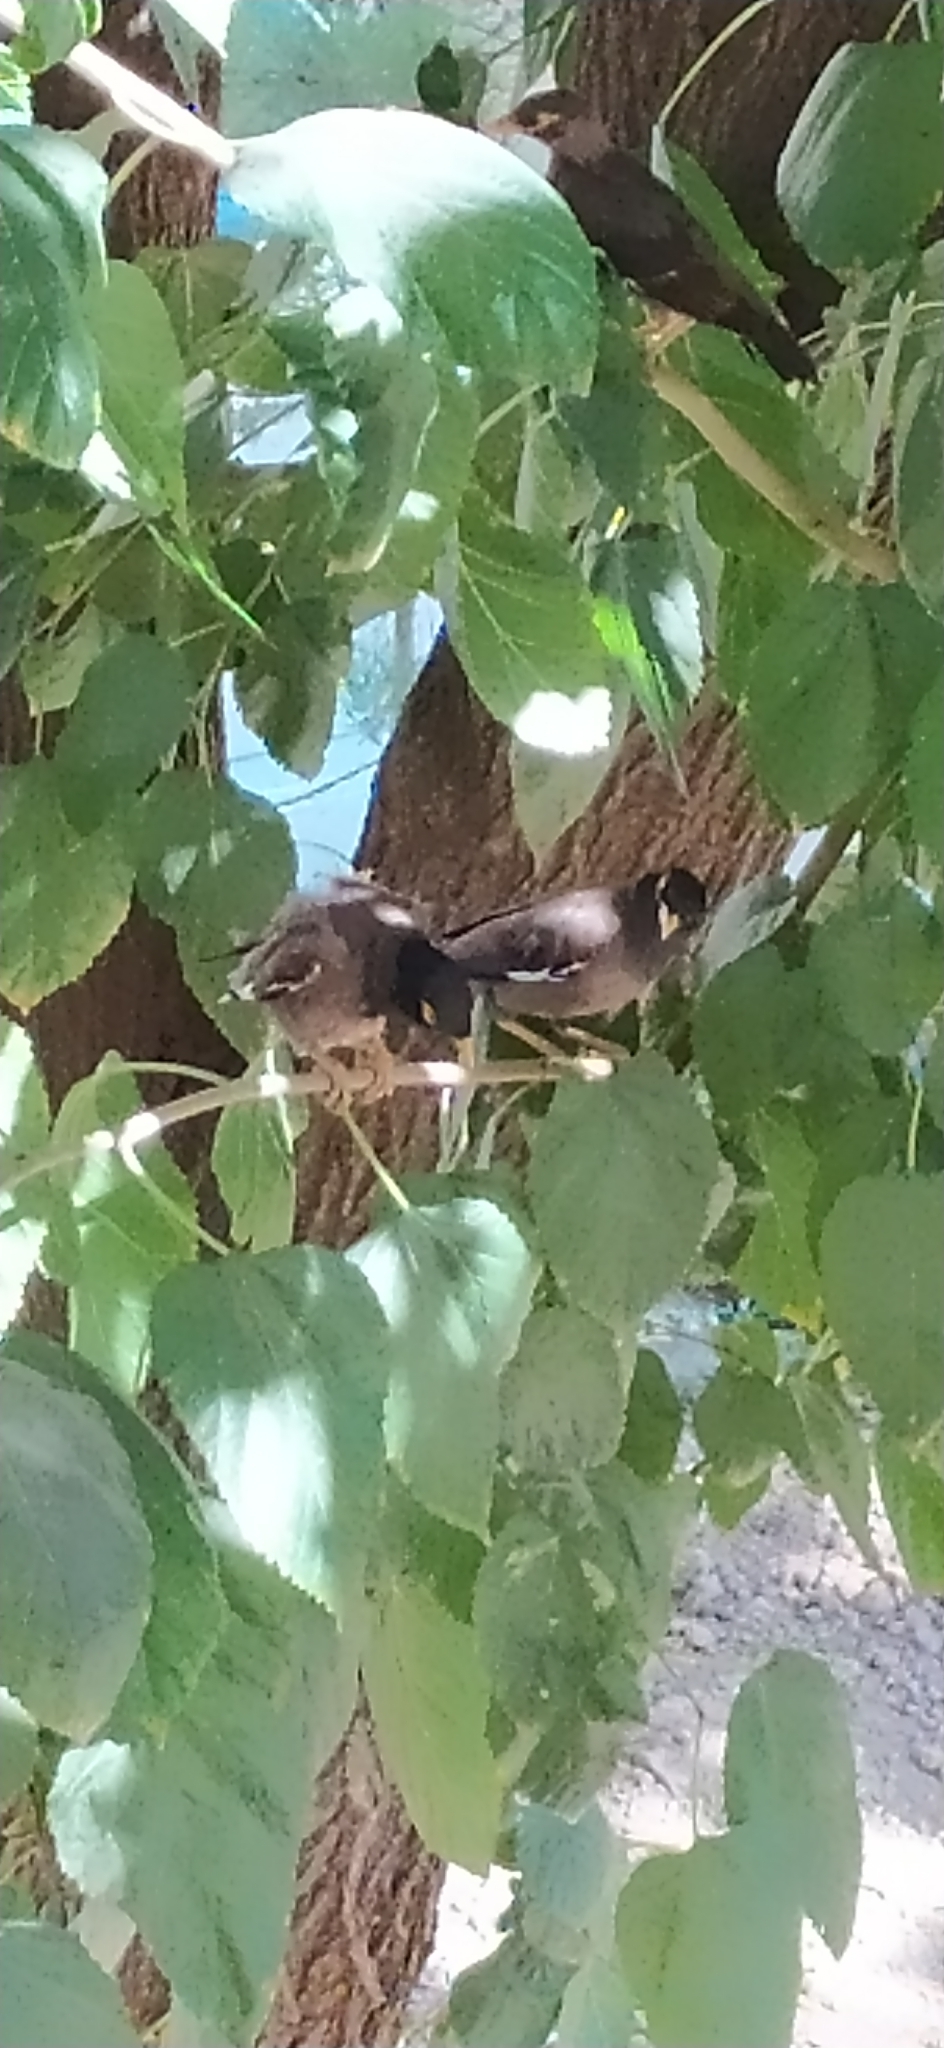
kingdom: Animalia
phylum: Chordata
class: Aves
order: Passeriformes
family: Sturnidae
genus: Acridotheres
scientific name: Acridotheres tristis
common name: Common myna
